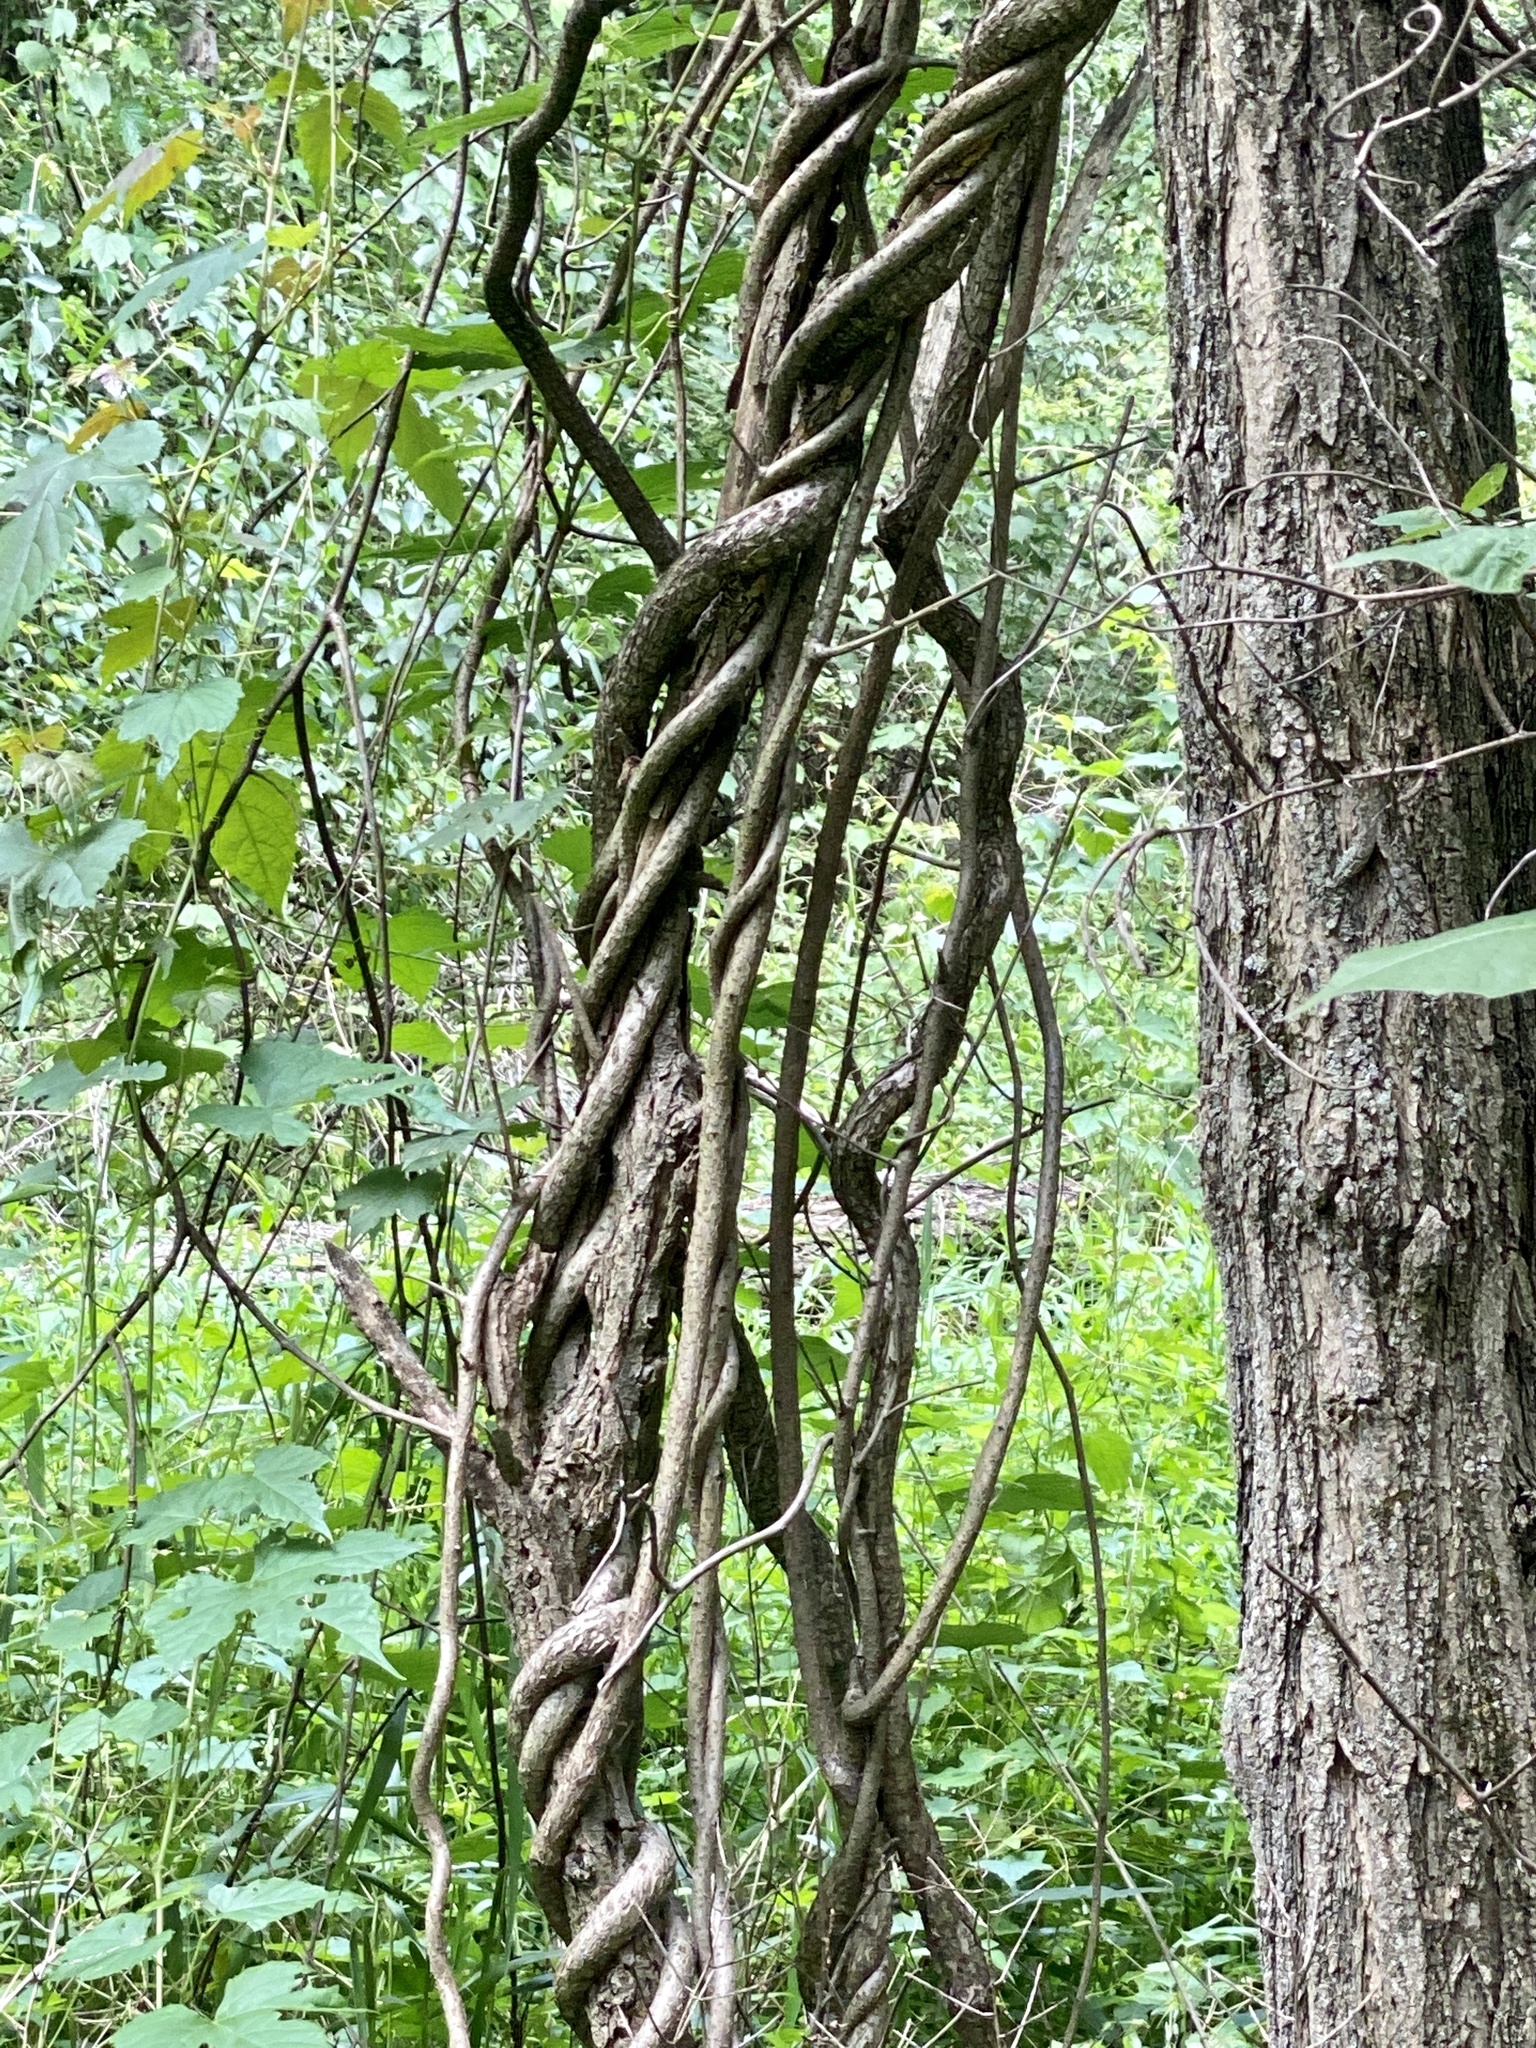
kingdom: Plantae
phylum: Tracheophyta
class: Magnoliopsida
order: Celastrales
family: Celastraceae
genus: Celastrus
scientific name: Celastrus orbiculatus
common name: Oriental bittersweet
